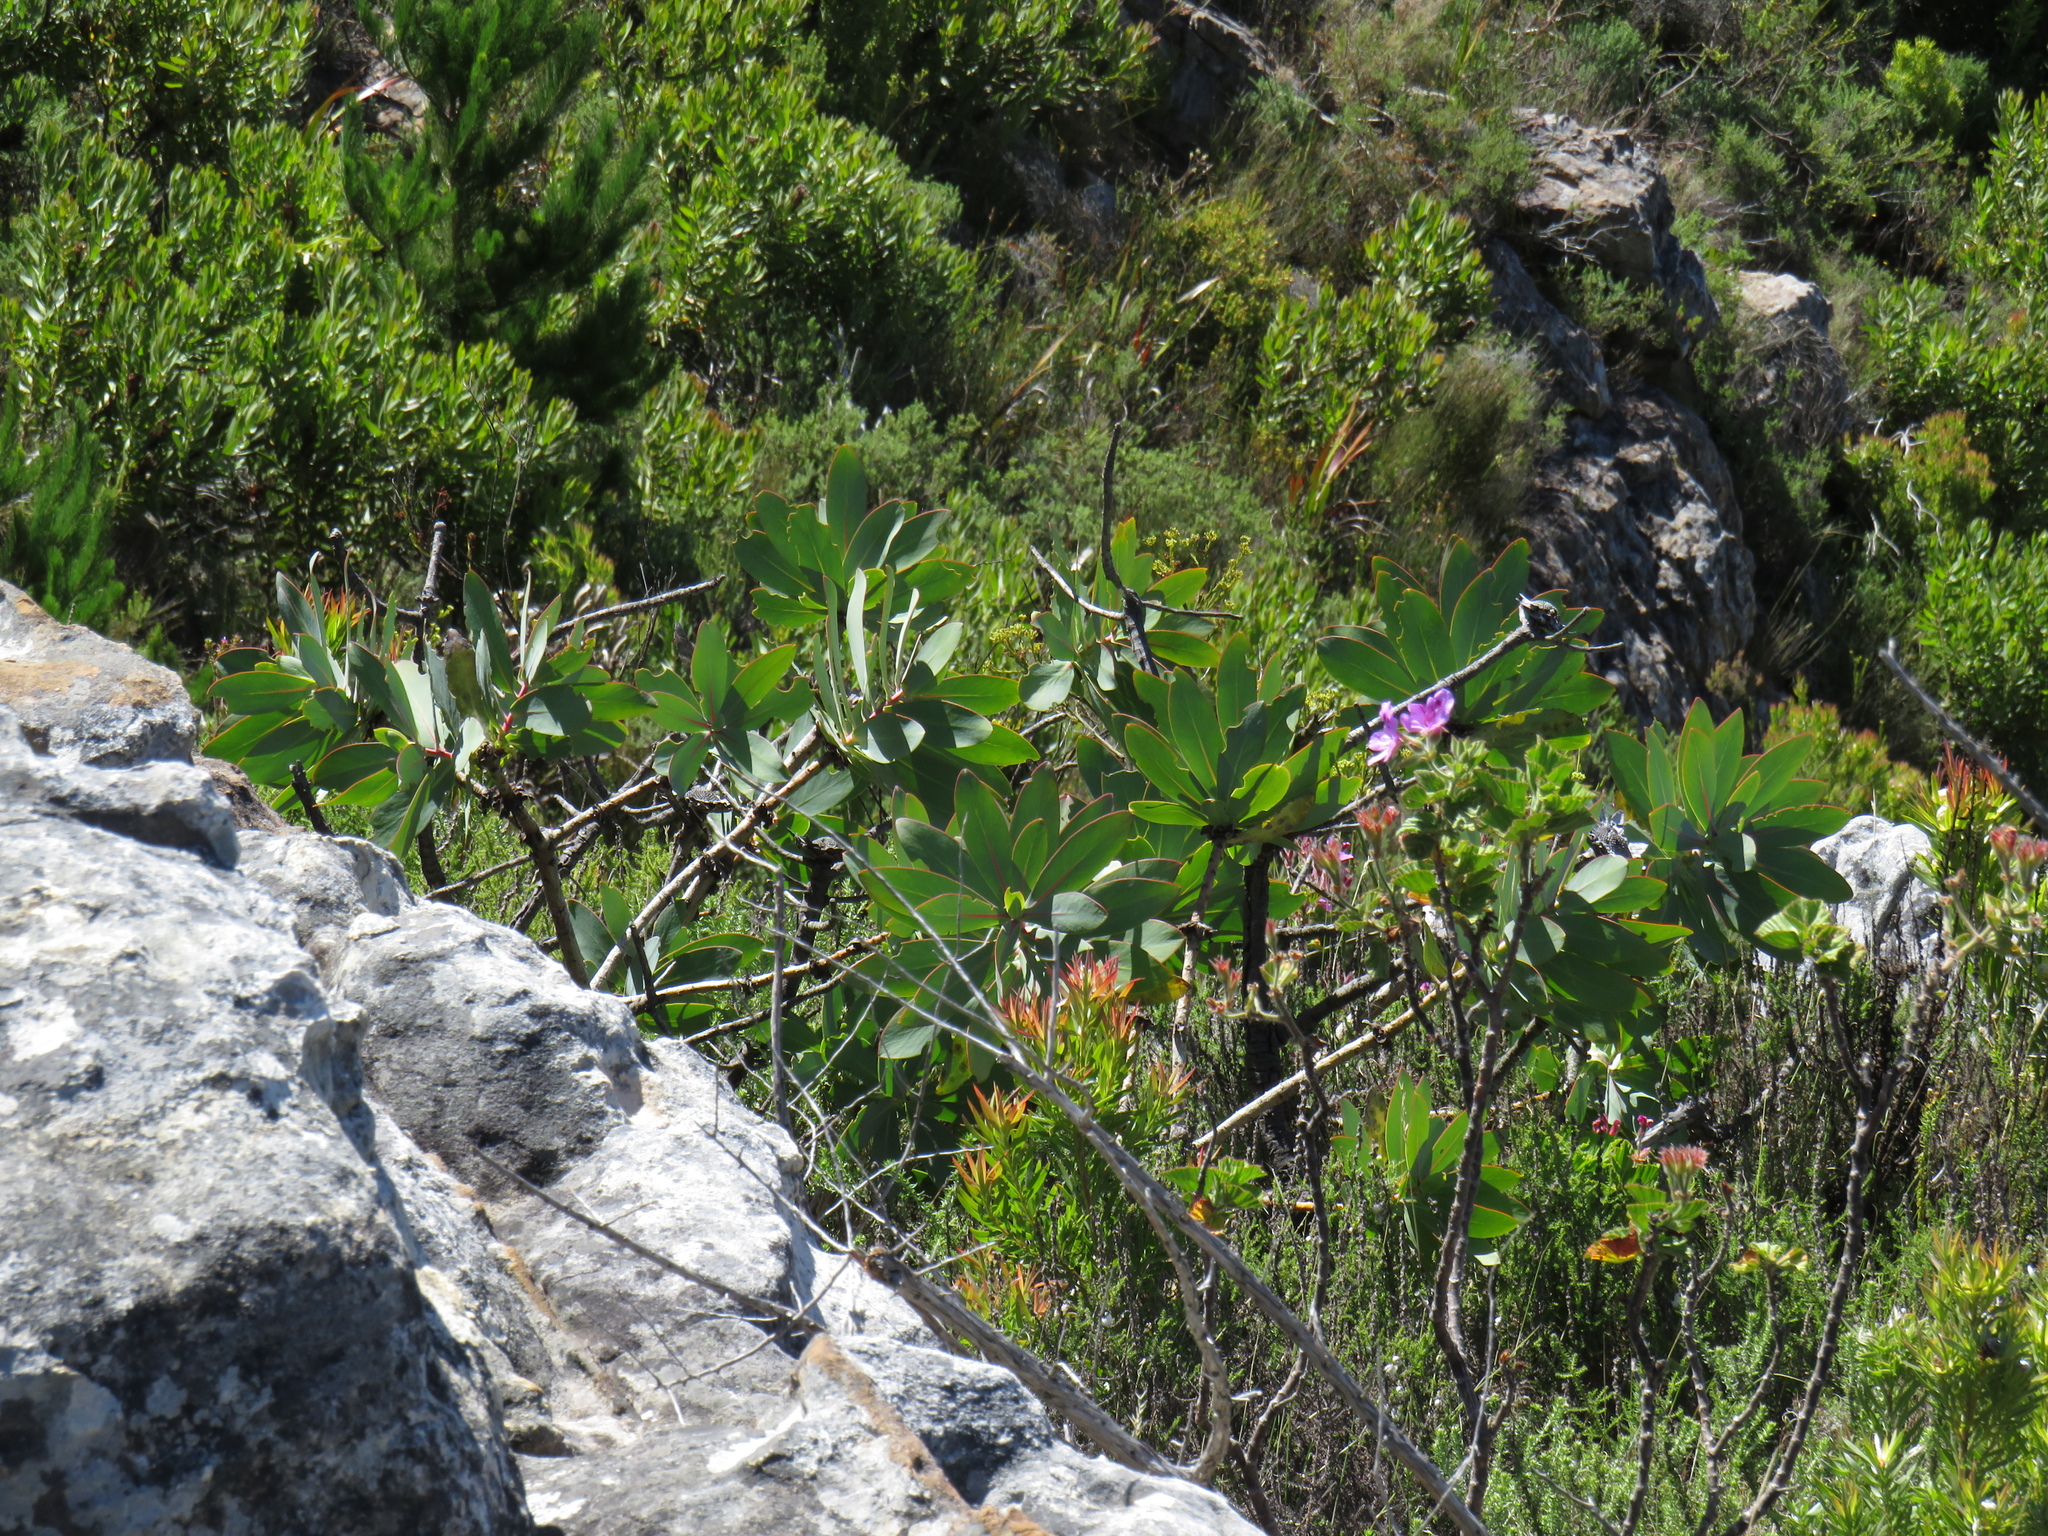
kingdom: Plantae
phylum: Tracheophyta
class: Magnoliopsida
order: Proteales
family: Proteaceae
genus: Protea
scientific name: Protea nitida
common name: Tree protea
